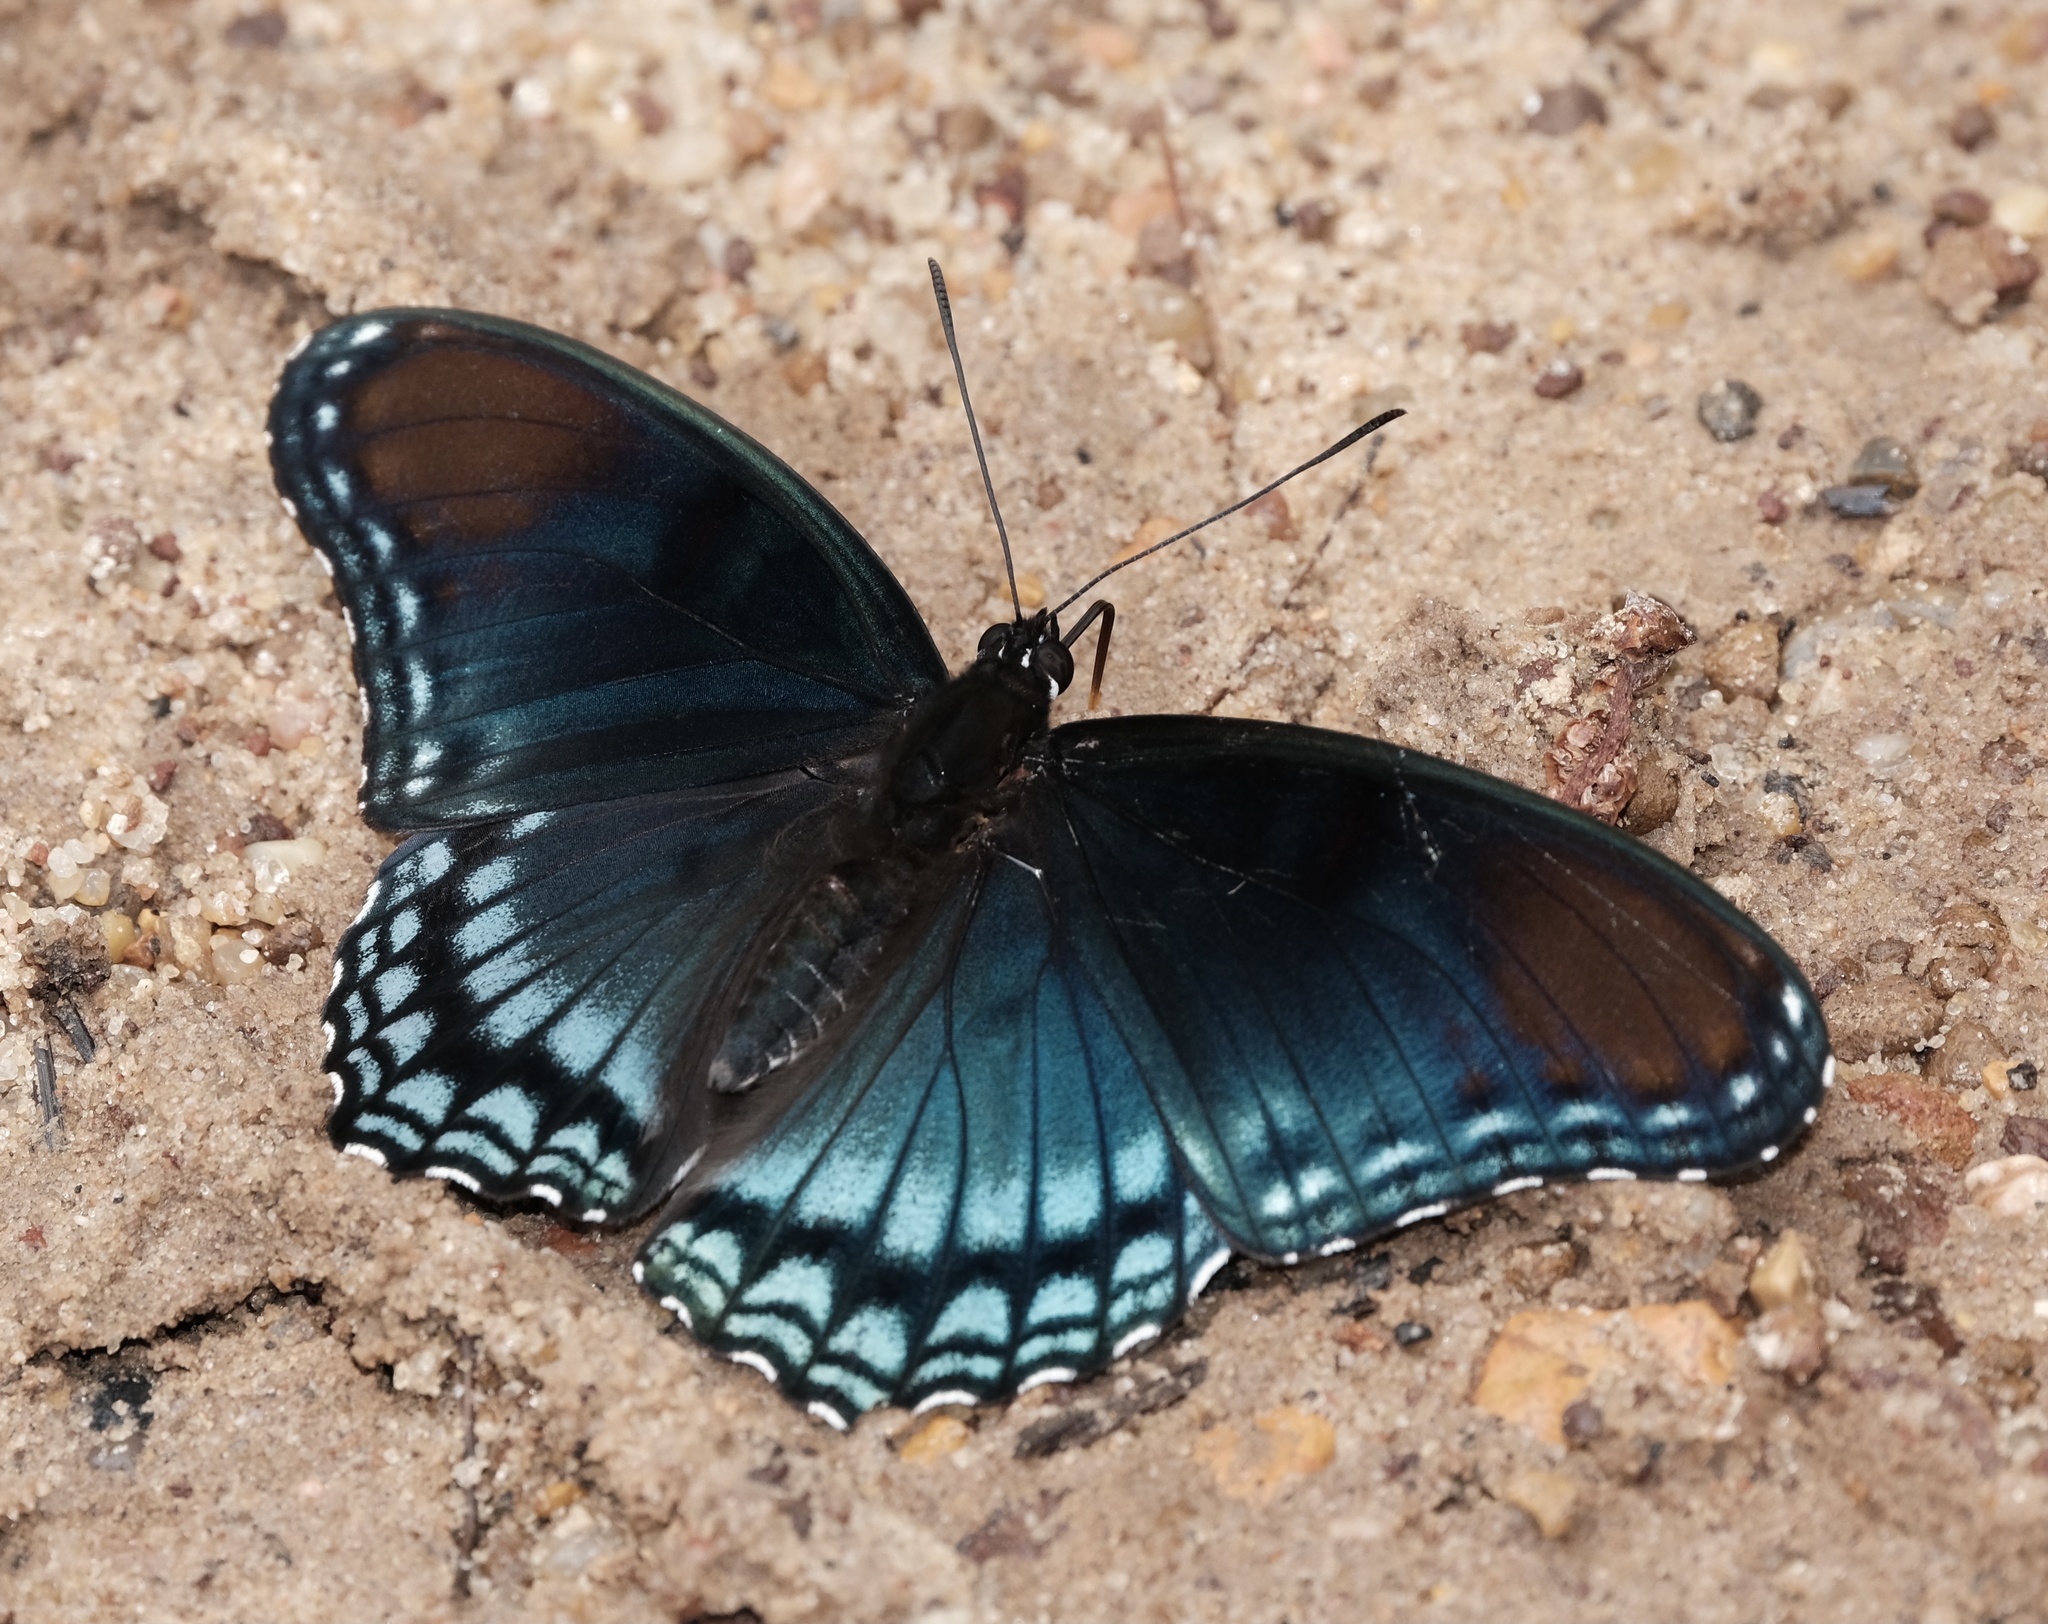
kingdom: Animalia
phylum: Arthropoda
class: Insecta
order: Lepidoptera
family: Nymphalidae
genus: Limenitis
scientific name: Limenitis arthemis
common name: Red-spotted admiral
